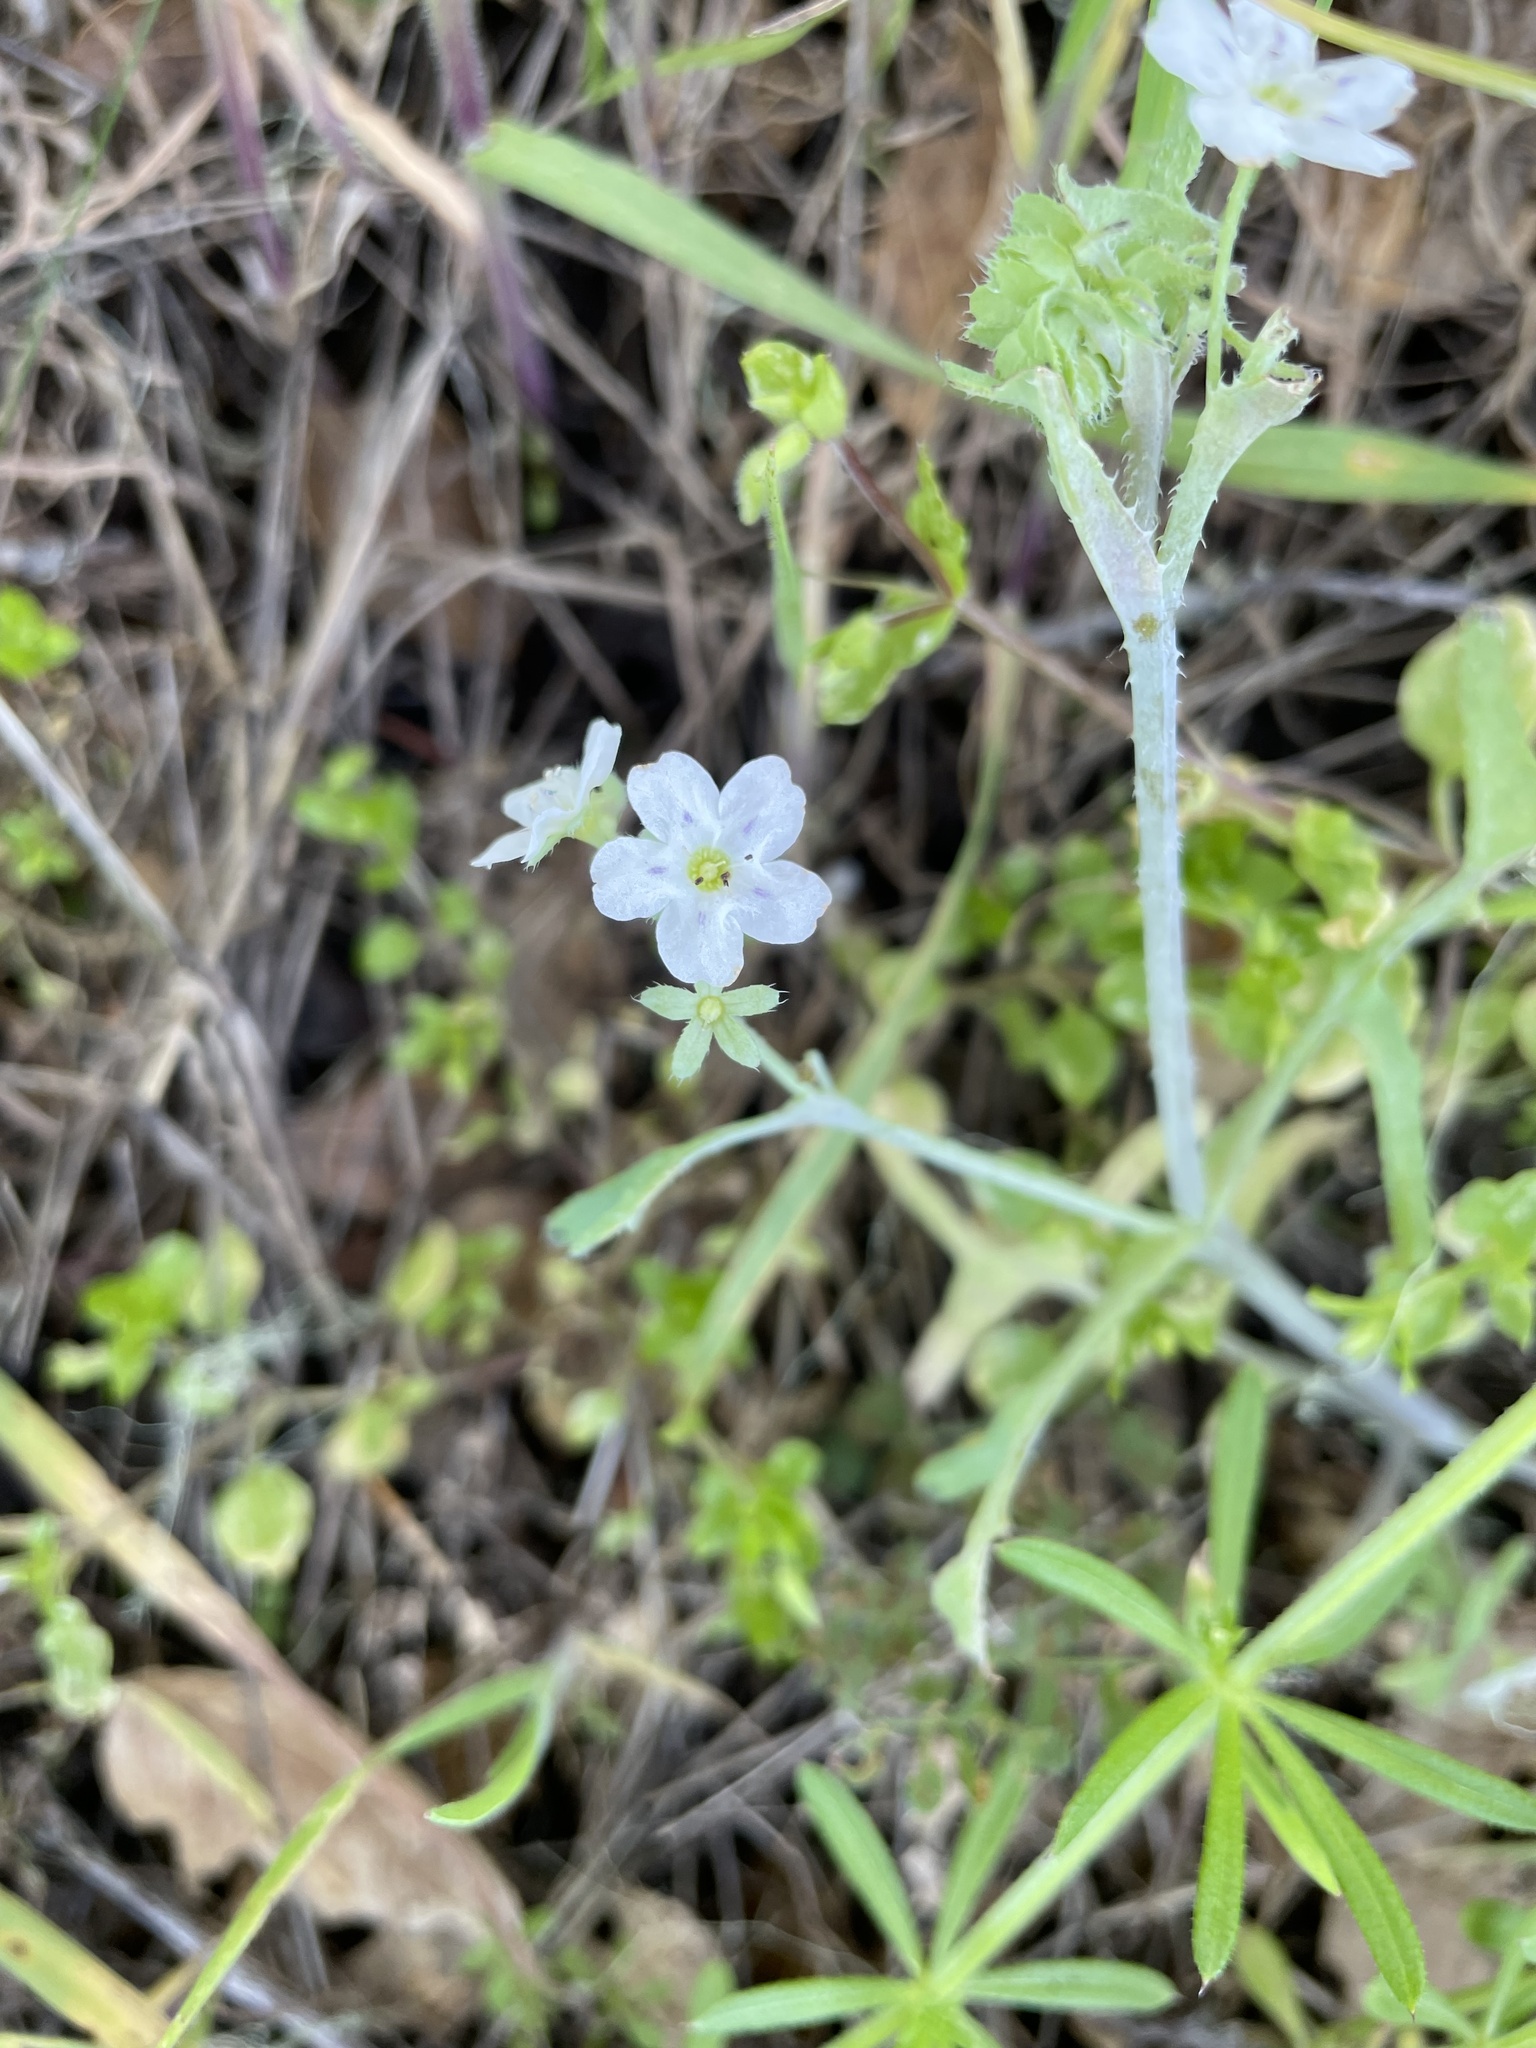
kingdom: Plantae
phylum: Tracheophyta
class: Magnoliopsida
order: Boraginales
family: Hydrophyllaceae
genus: Pholistoma
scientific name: Pholistoma membranaceum
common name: White fiesta-flower
